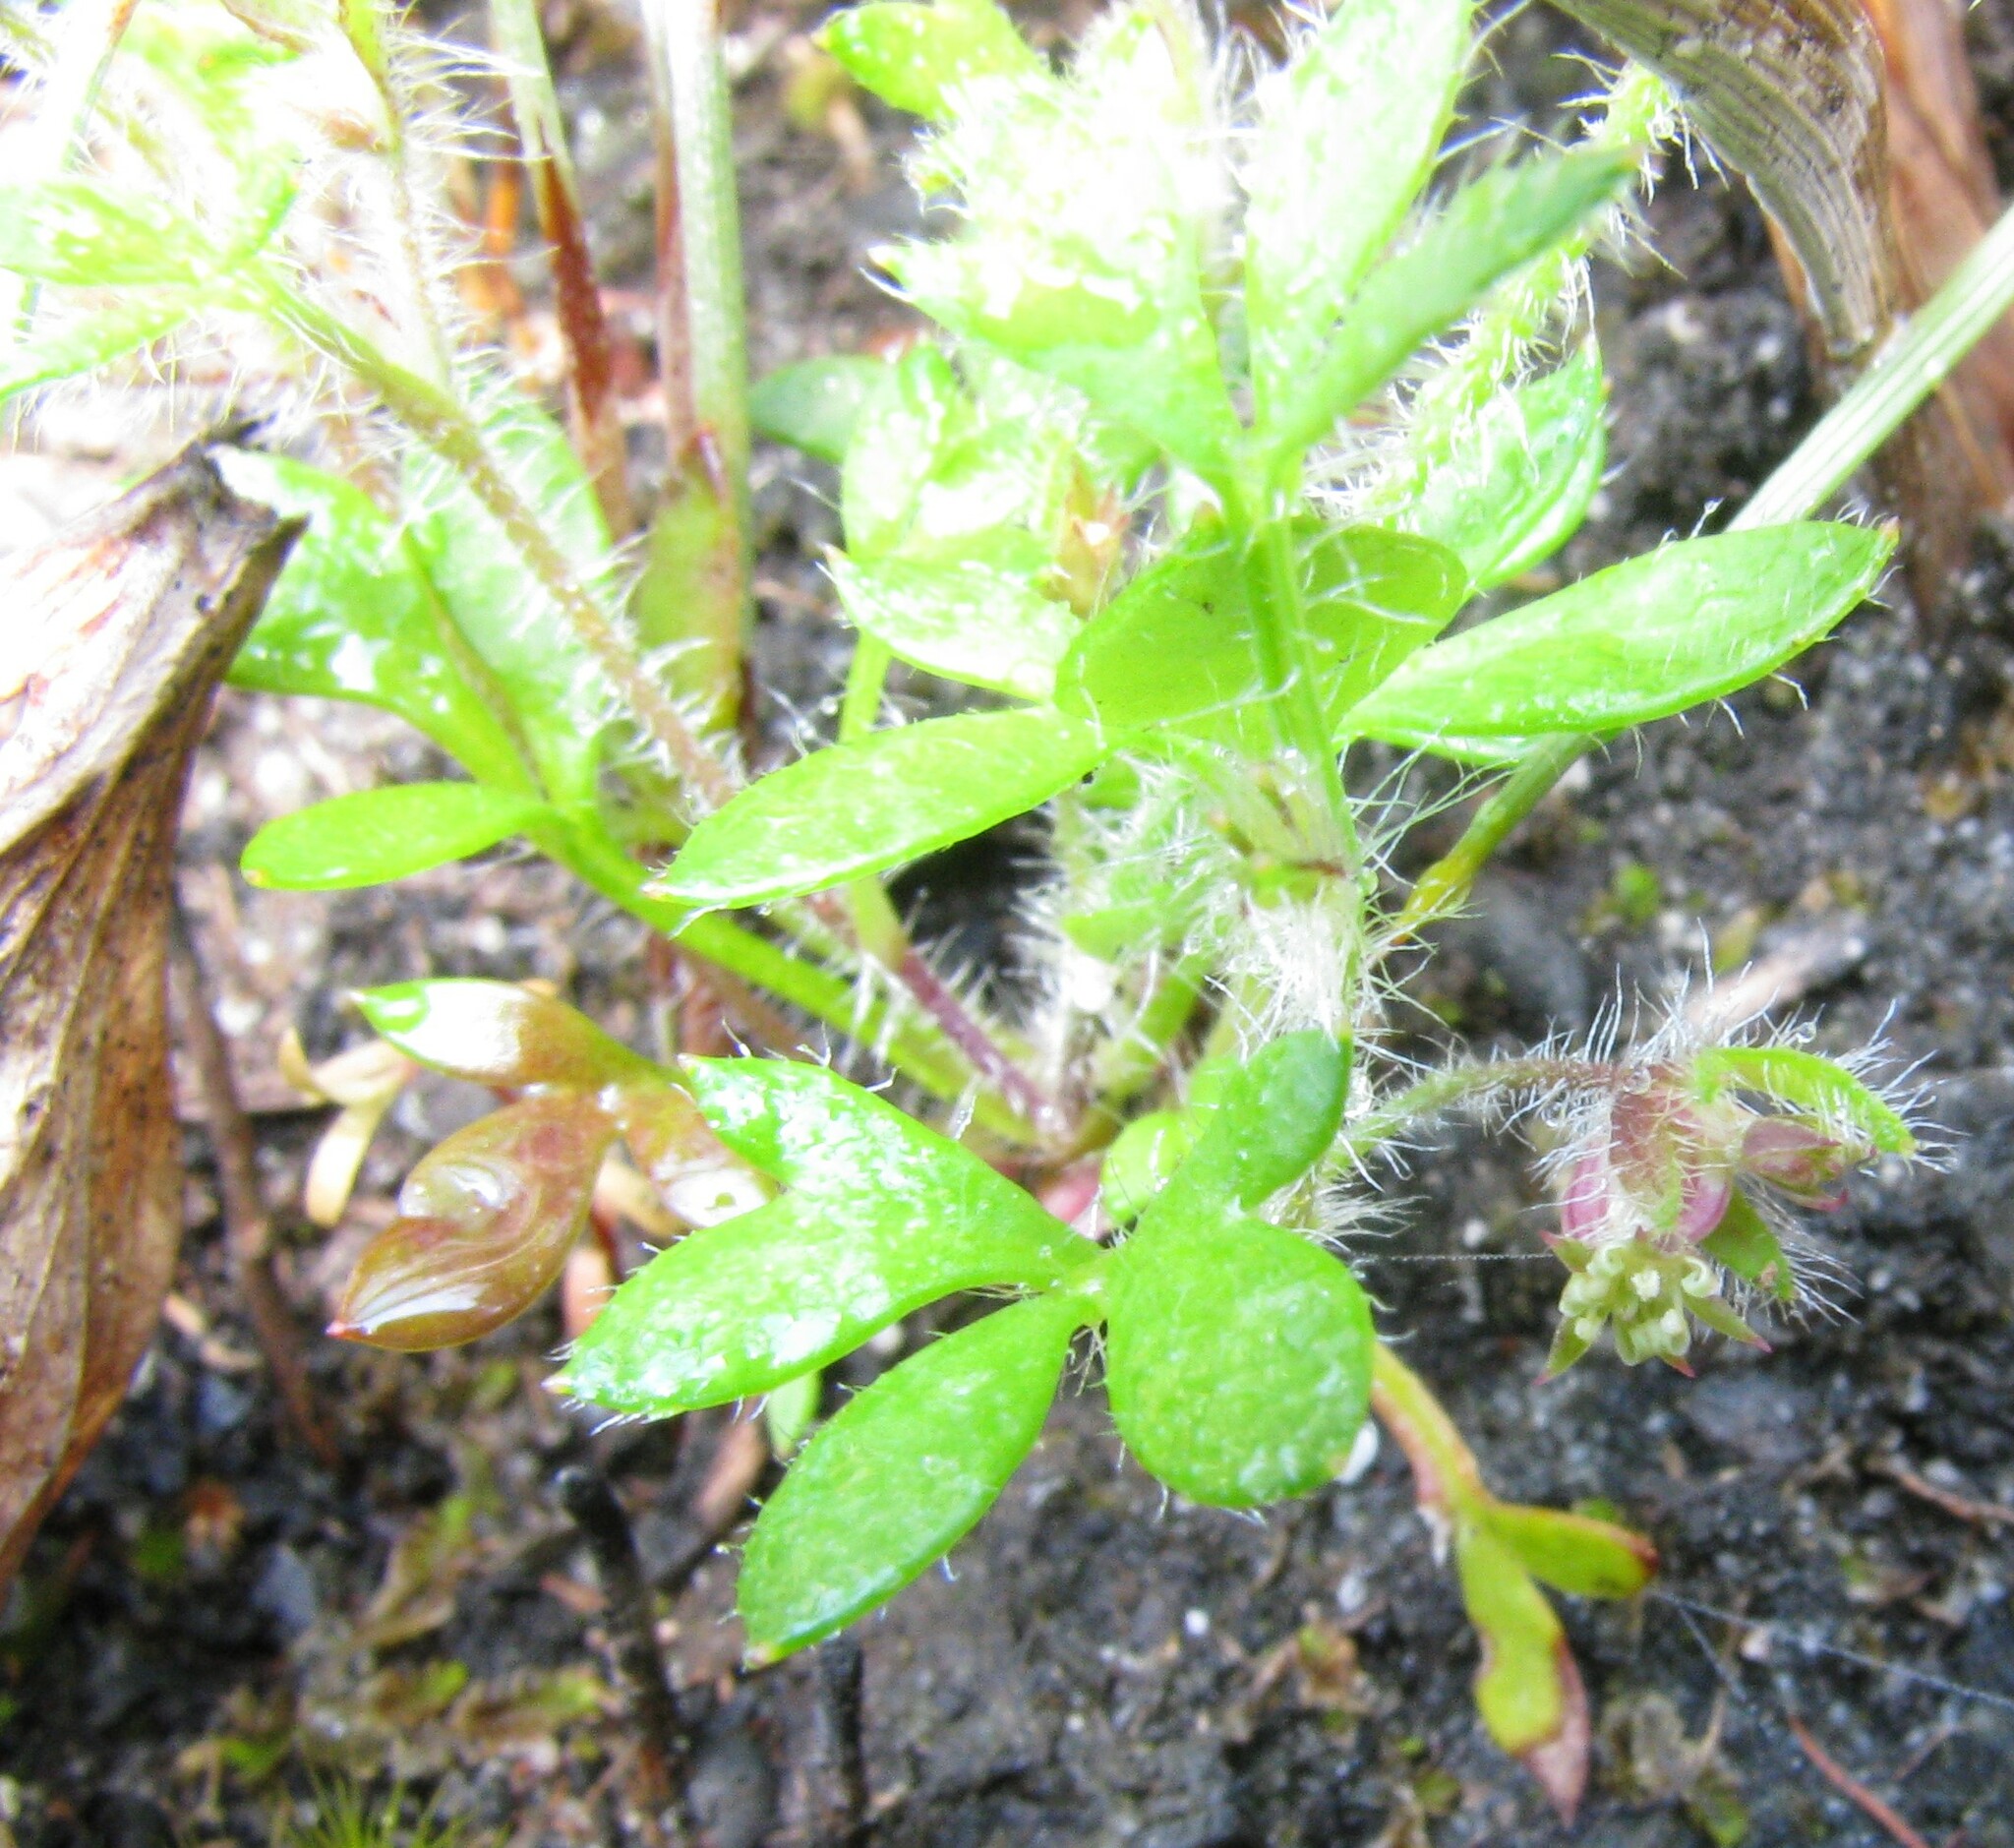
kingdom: Plantae
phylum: Tracheophyta
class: Magnoliopsida
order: Apiales
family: Apiaceae
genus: Xanthosia
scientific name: Xanthosia tasmanica
